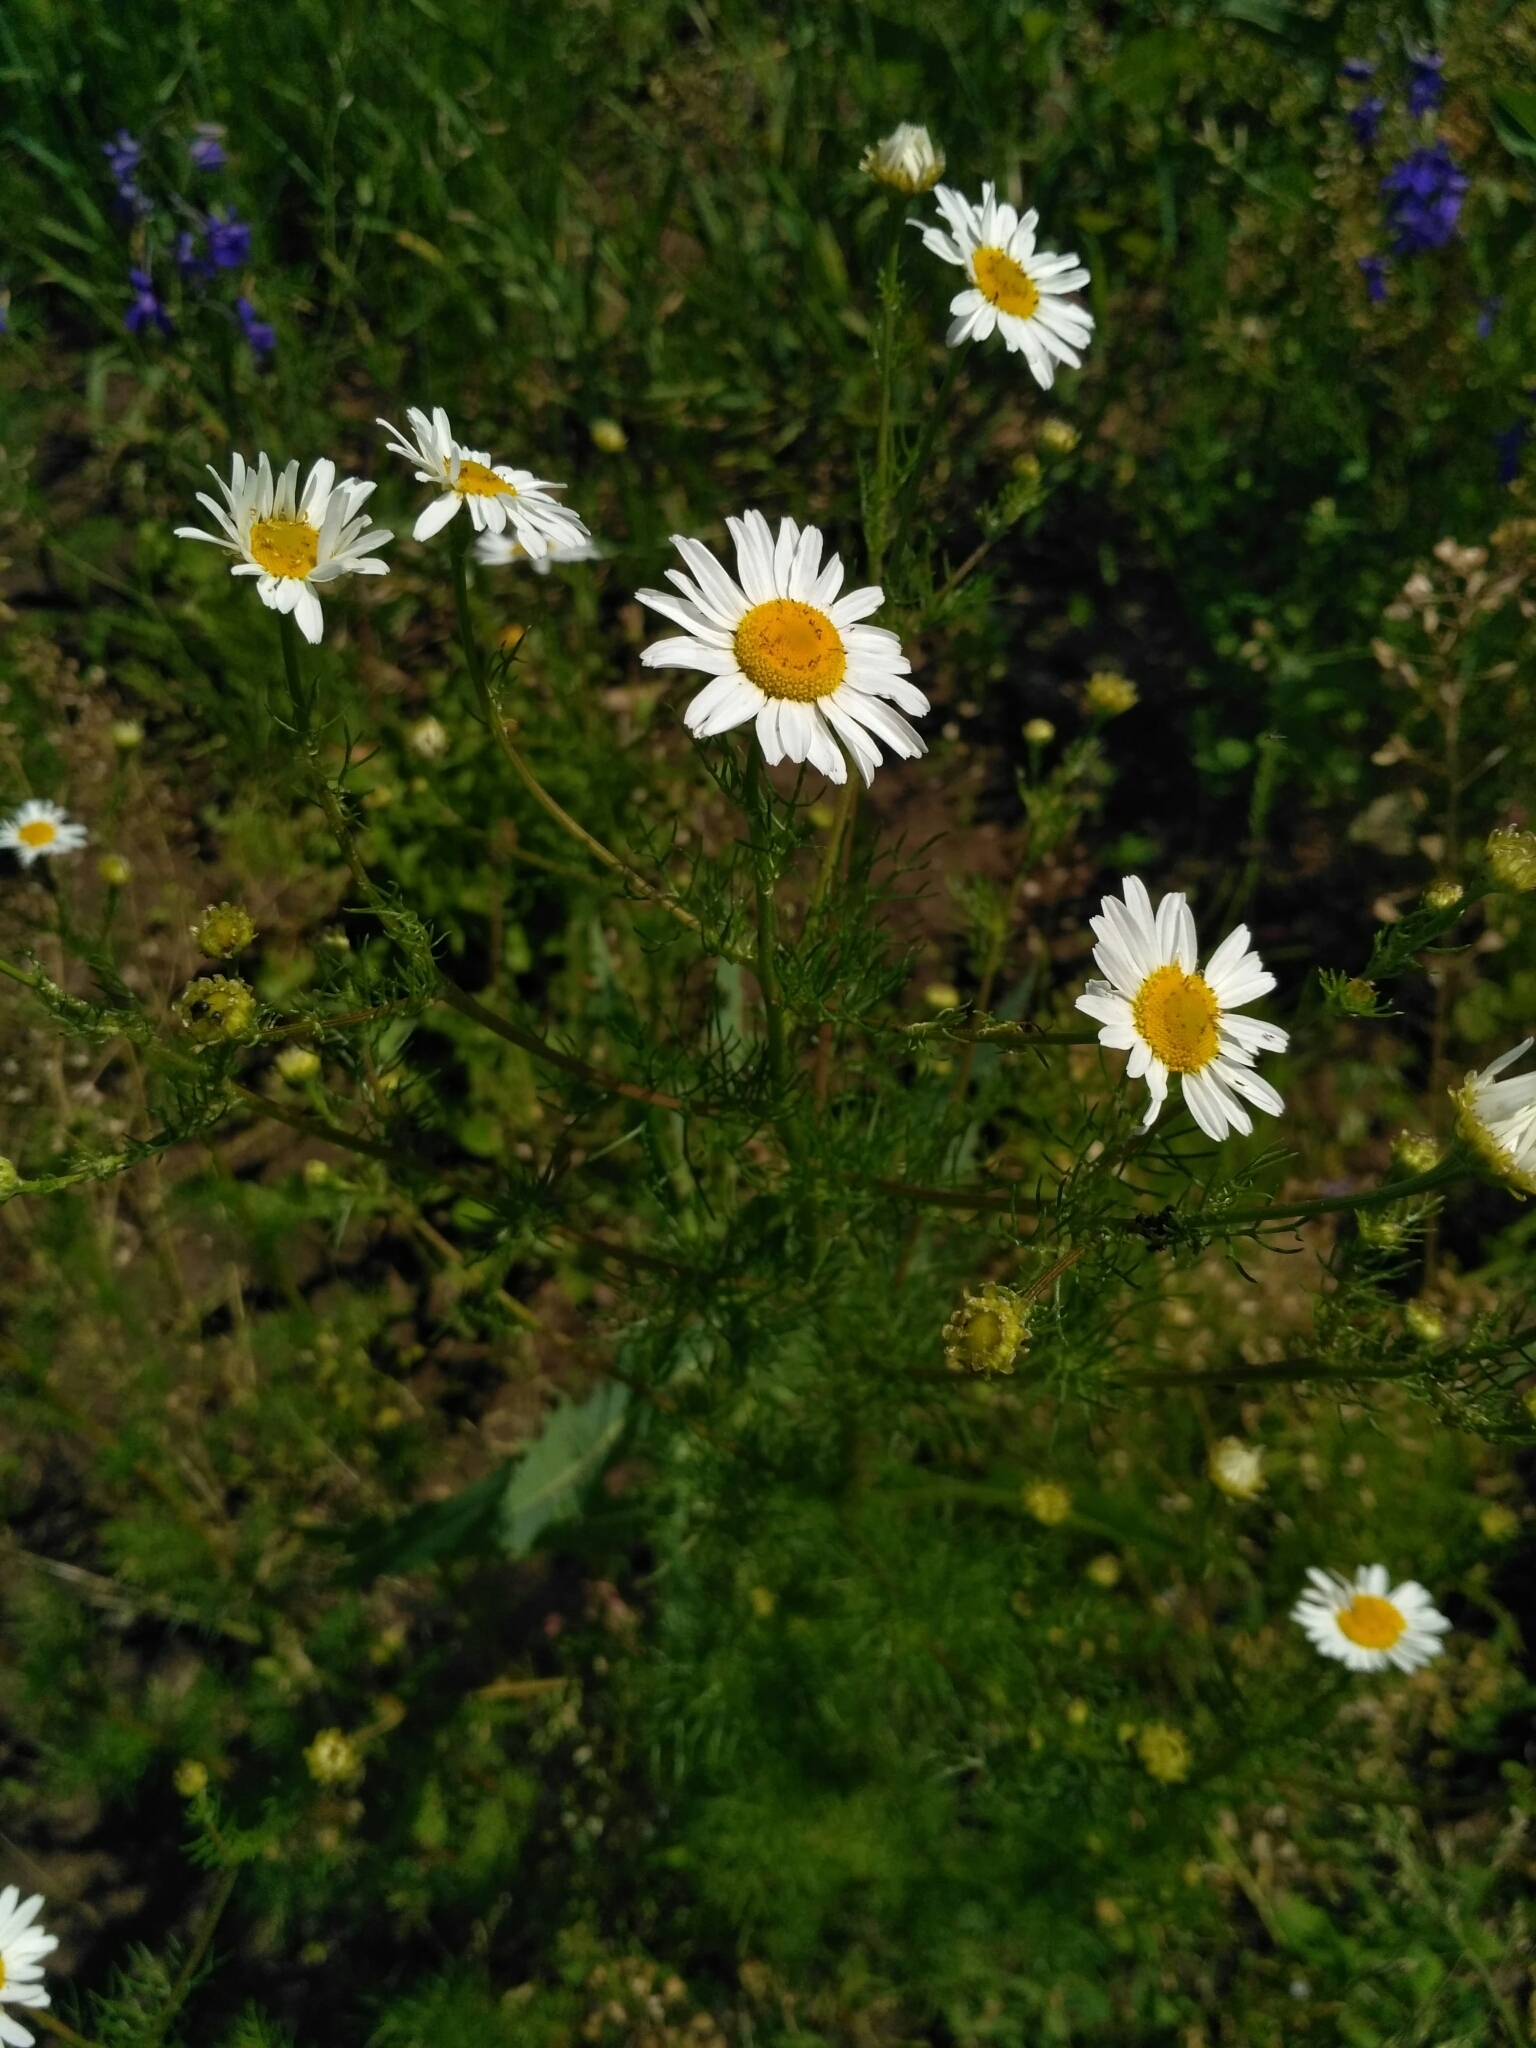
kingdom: Plantae
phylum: Tracheophyta
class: Magnoliopsida
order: Asterales
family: Asteraceae
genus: Tripleurospermum
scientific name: Tripleurospermum inodorum
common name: Scentless mayweed
